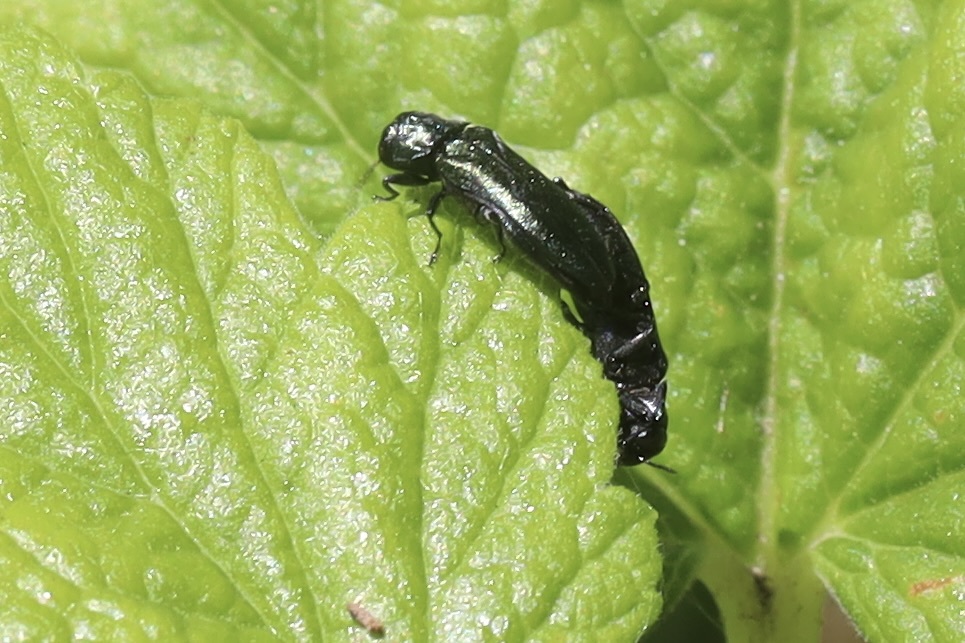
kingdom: Animalia
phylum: Arthropoda
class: Insecta
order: Coleoptera
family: Buprestidae
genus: Agrilus
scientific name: Agrilus cyanescens
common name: Bluish borer beetle
